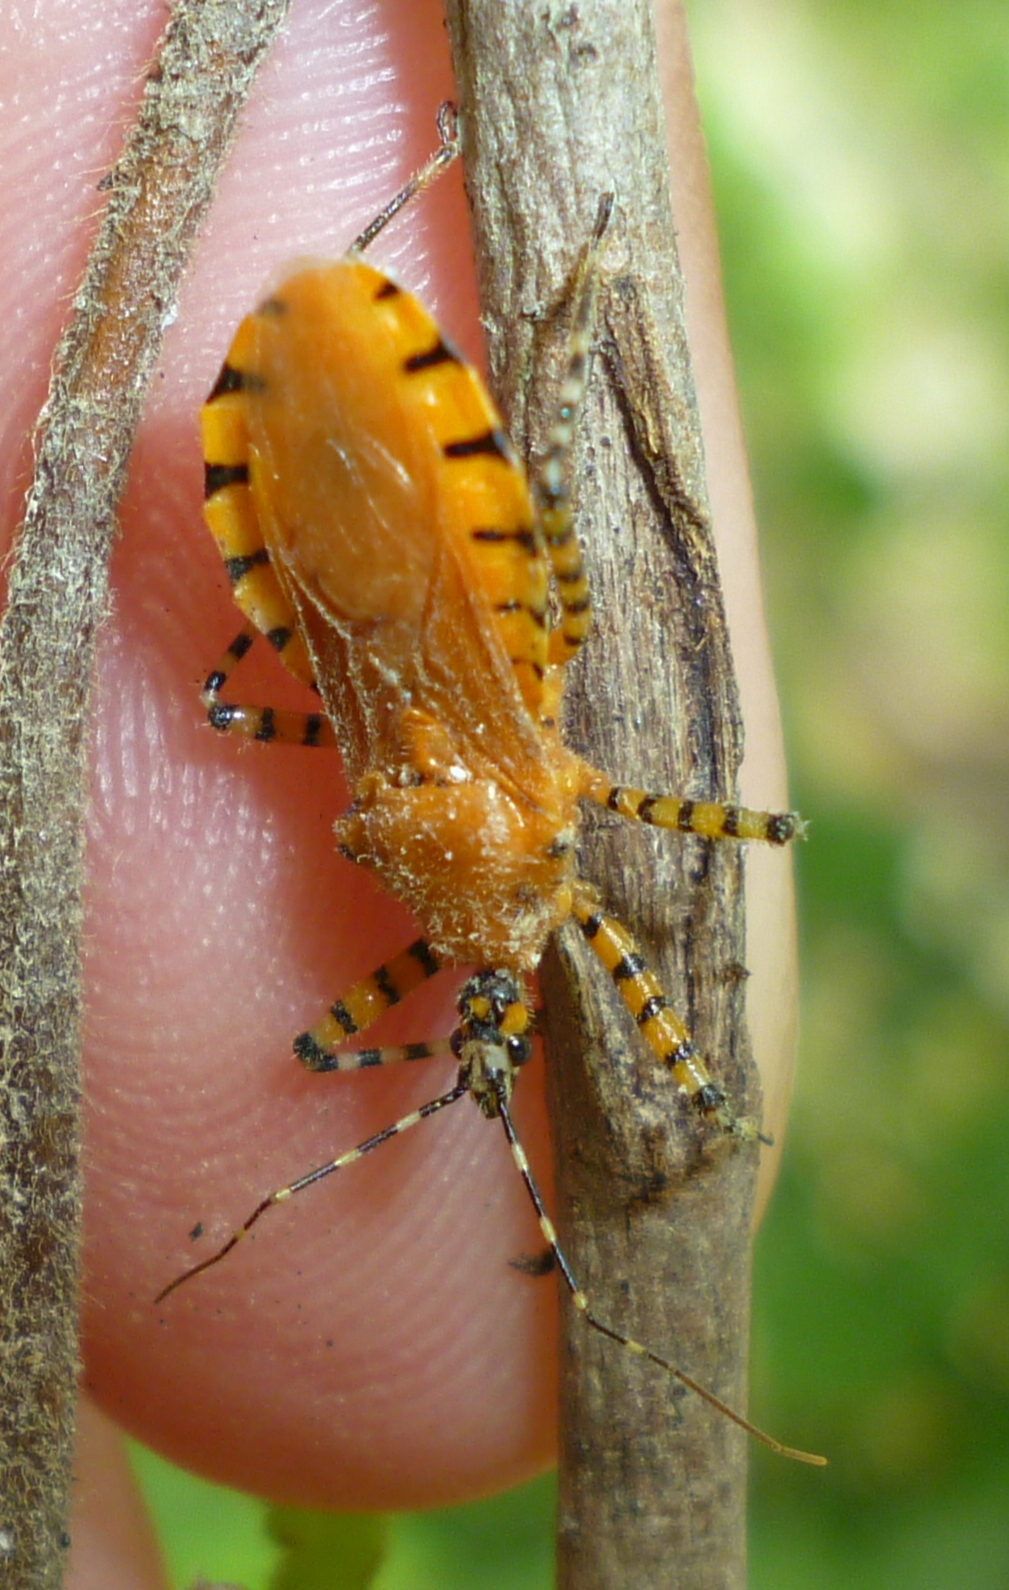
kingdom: Animalia
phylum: Arthropoda
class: Insecta
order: Hemiptera
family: Reduviidae
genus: Pselliopus
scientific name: Pselliopus barberi
